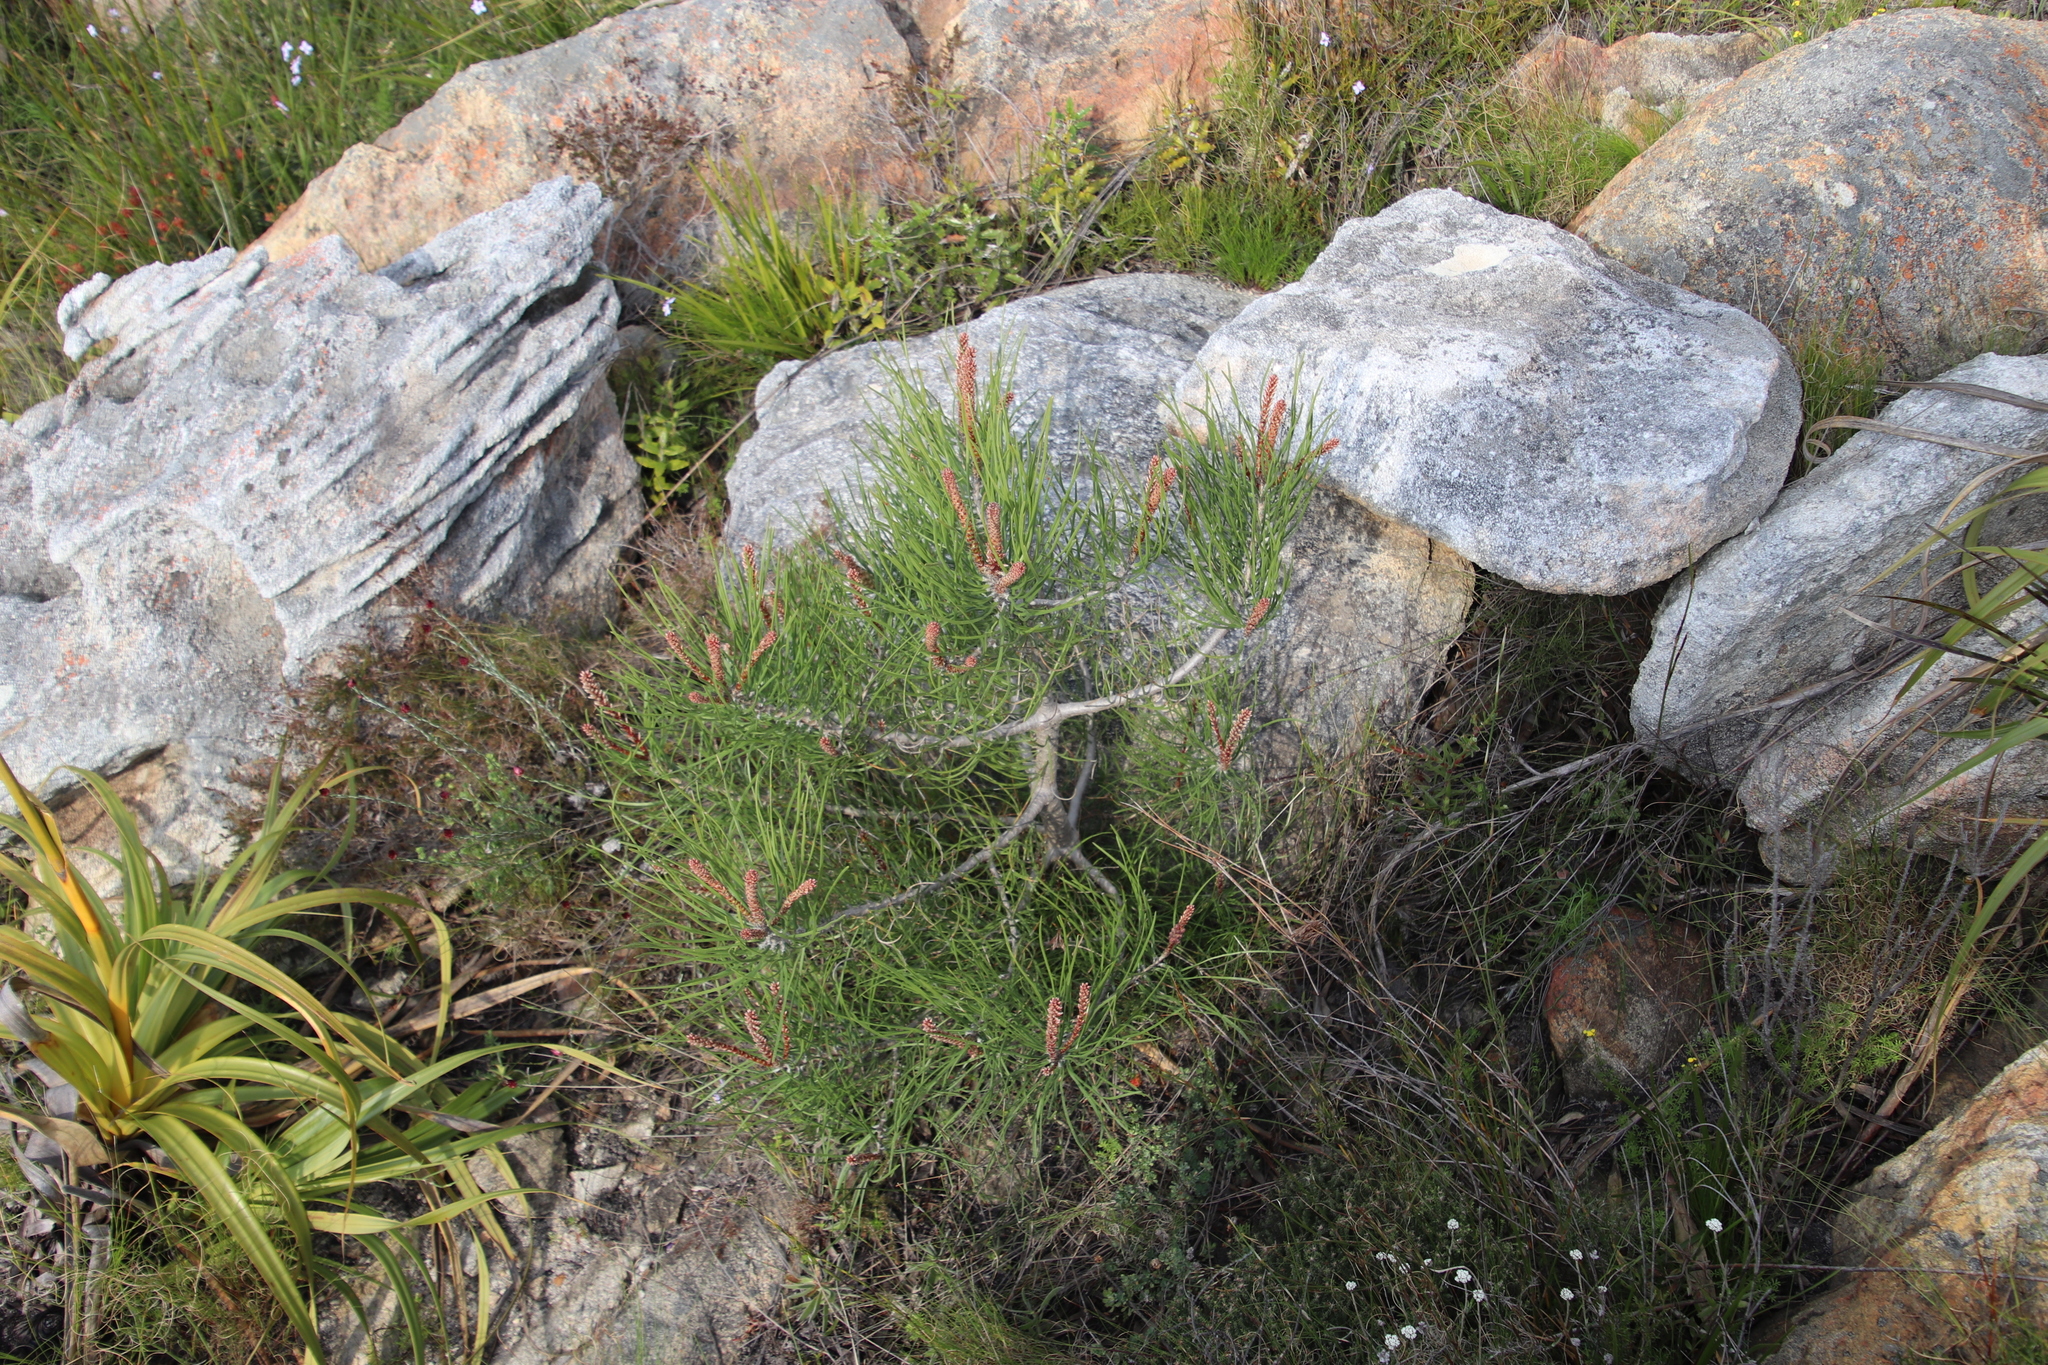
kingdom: Plantae
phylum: Tracheophyta
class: Pinopsida
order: Pinales
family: Pinaceae
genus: Pinus
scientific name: Pinus pinaster
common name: Maritime pine
